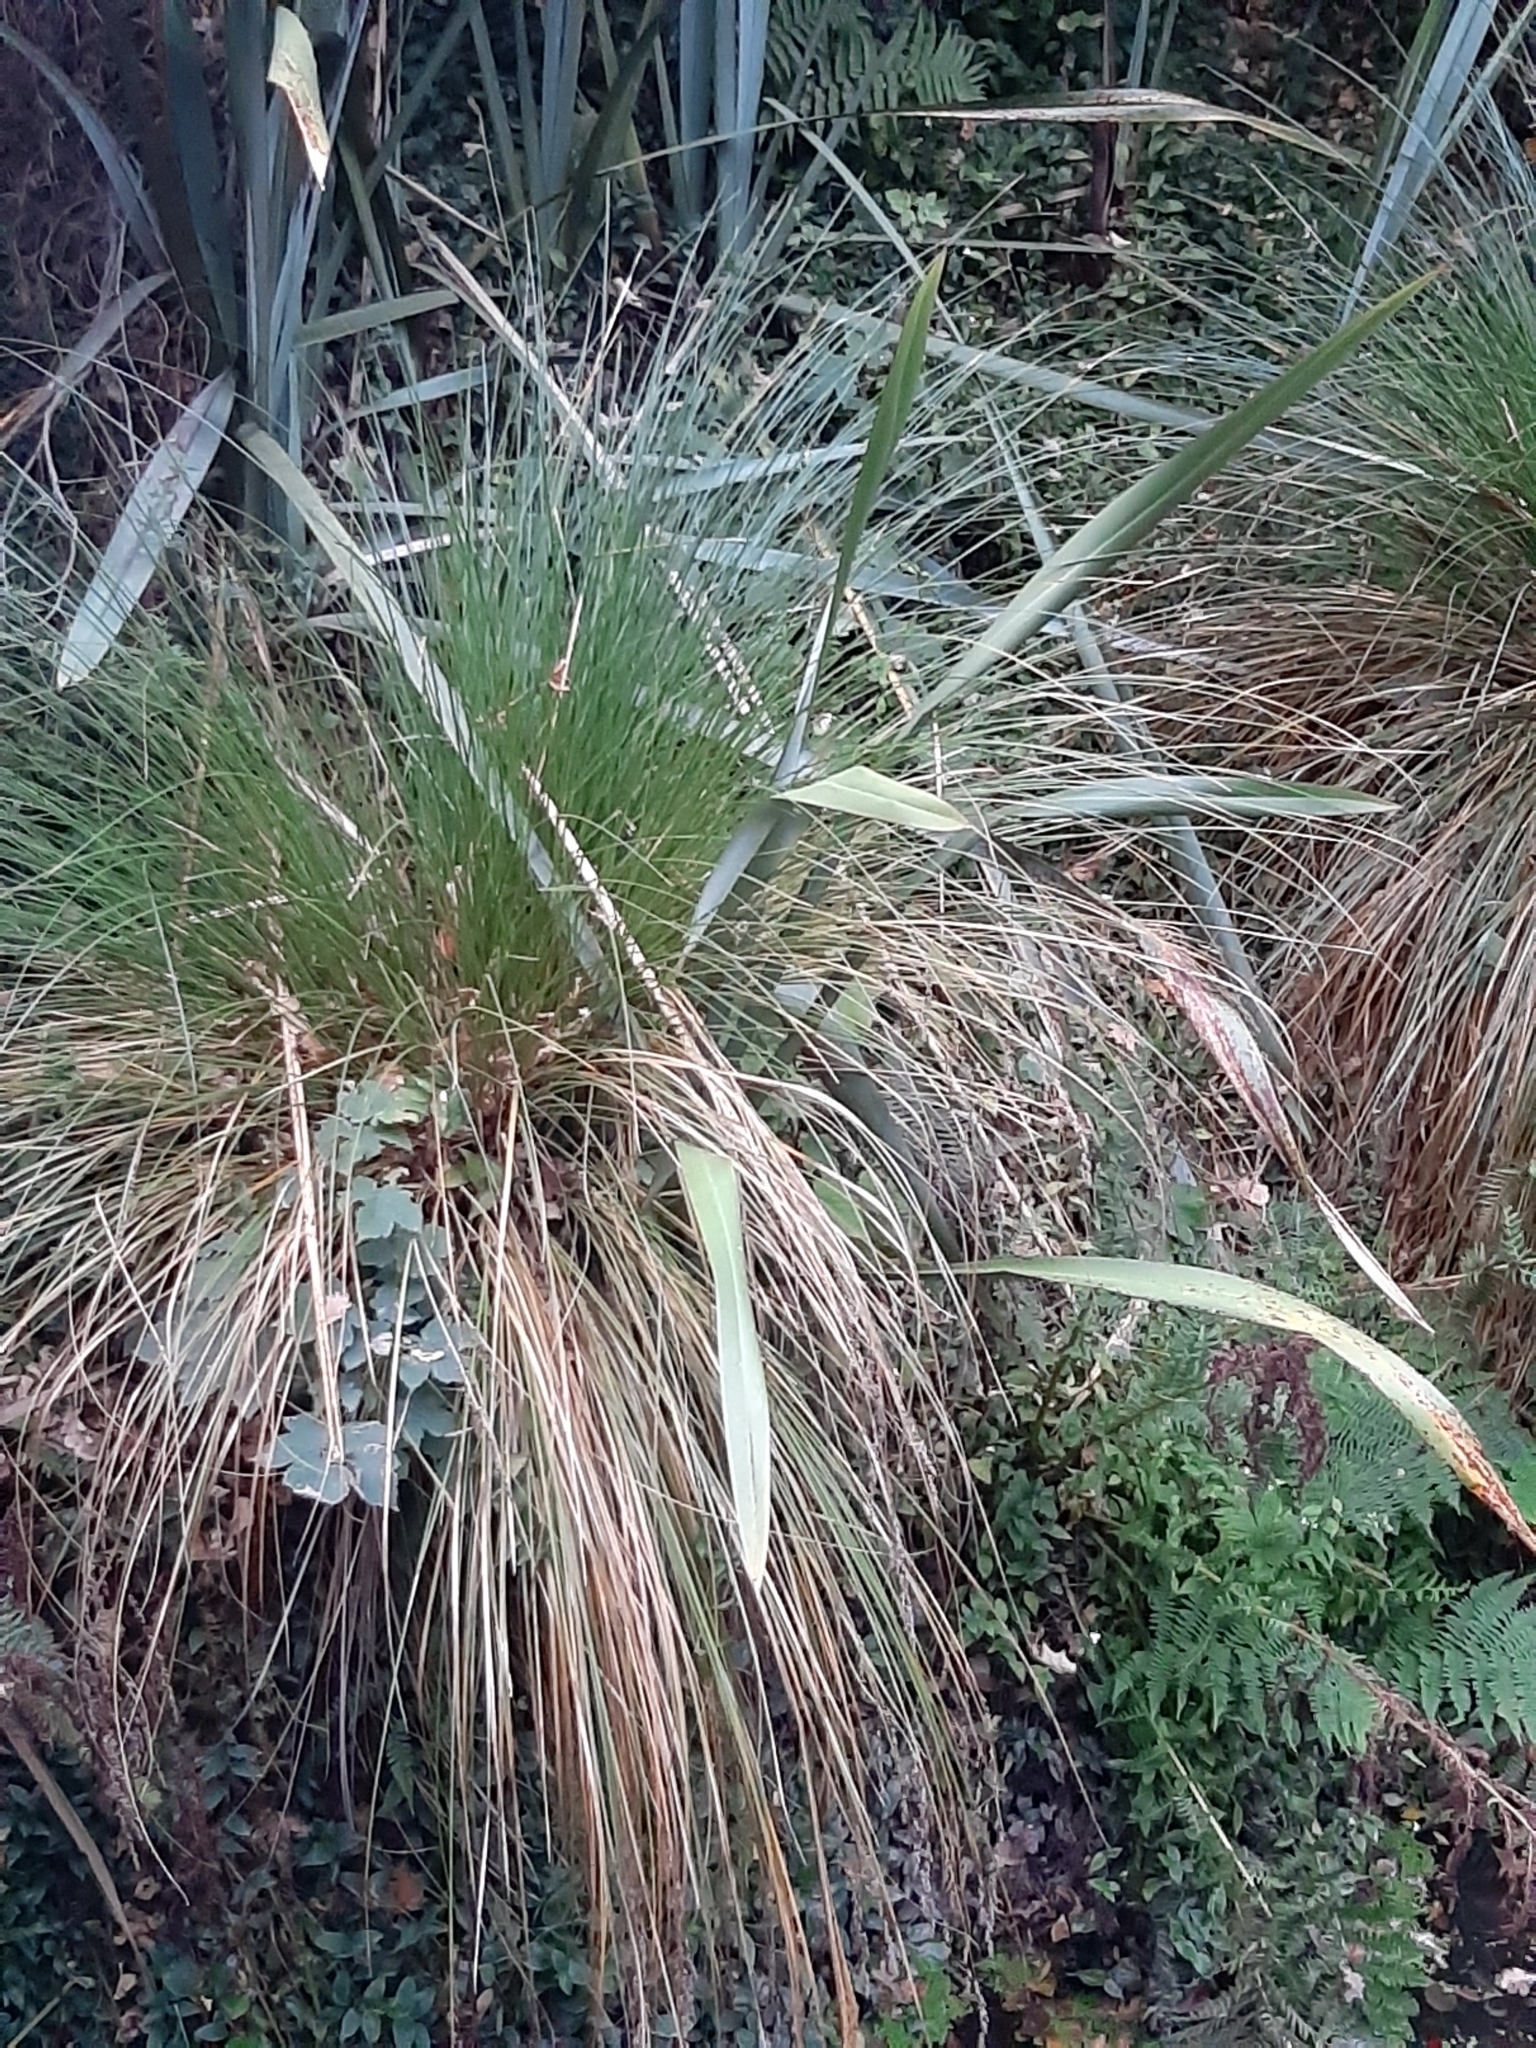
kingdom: Plantae
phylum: Tracheophyta
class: Liliopsida
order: Asparagales
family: Asphodelaceae
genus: Phormium
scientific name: Phormium tenax
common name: New zealand flax
